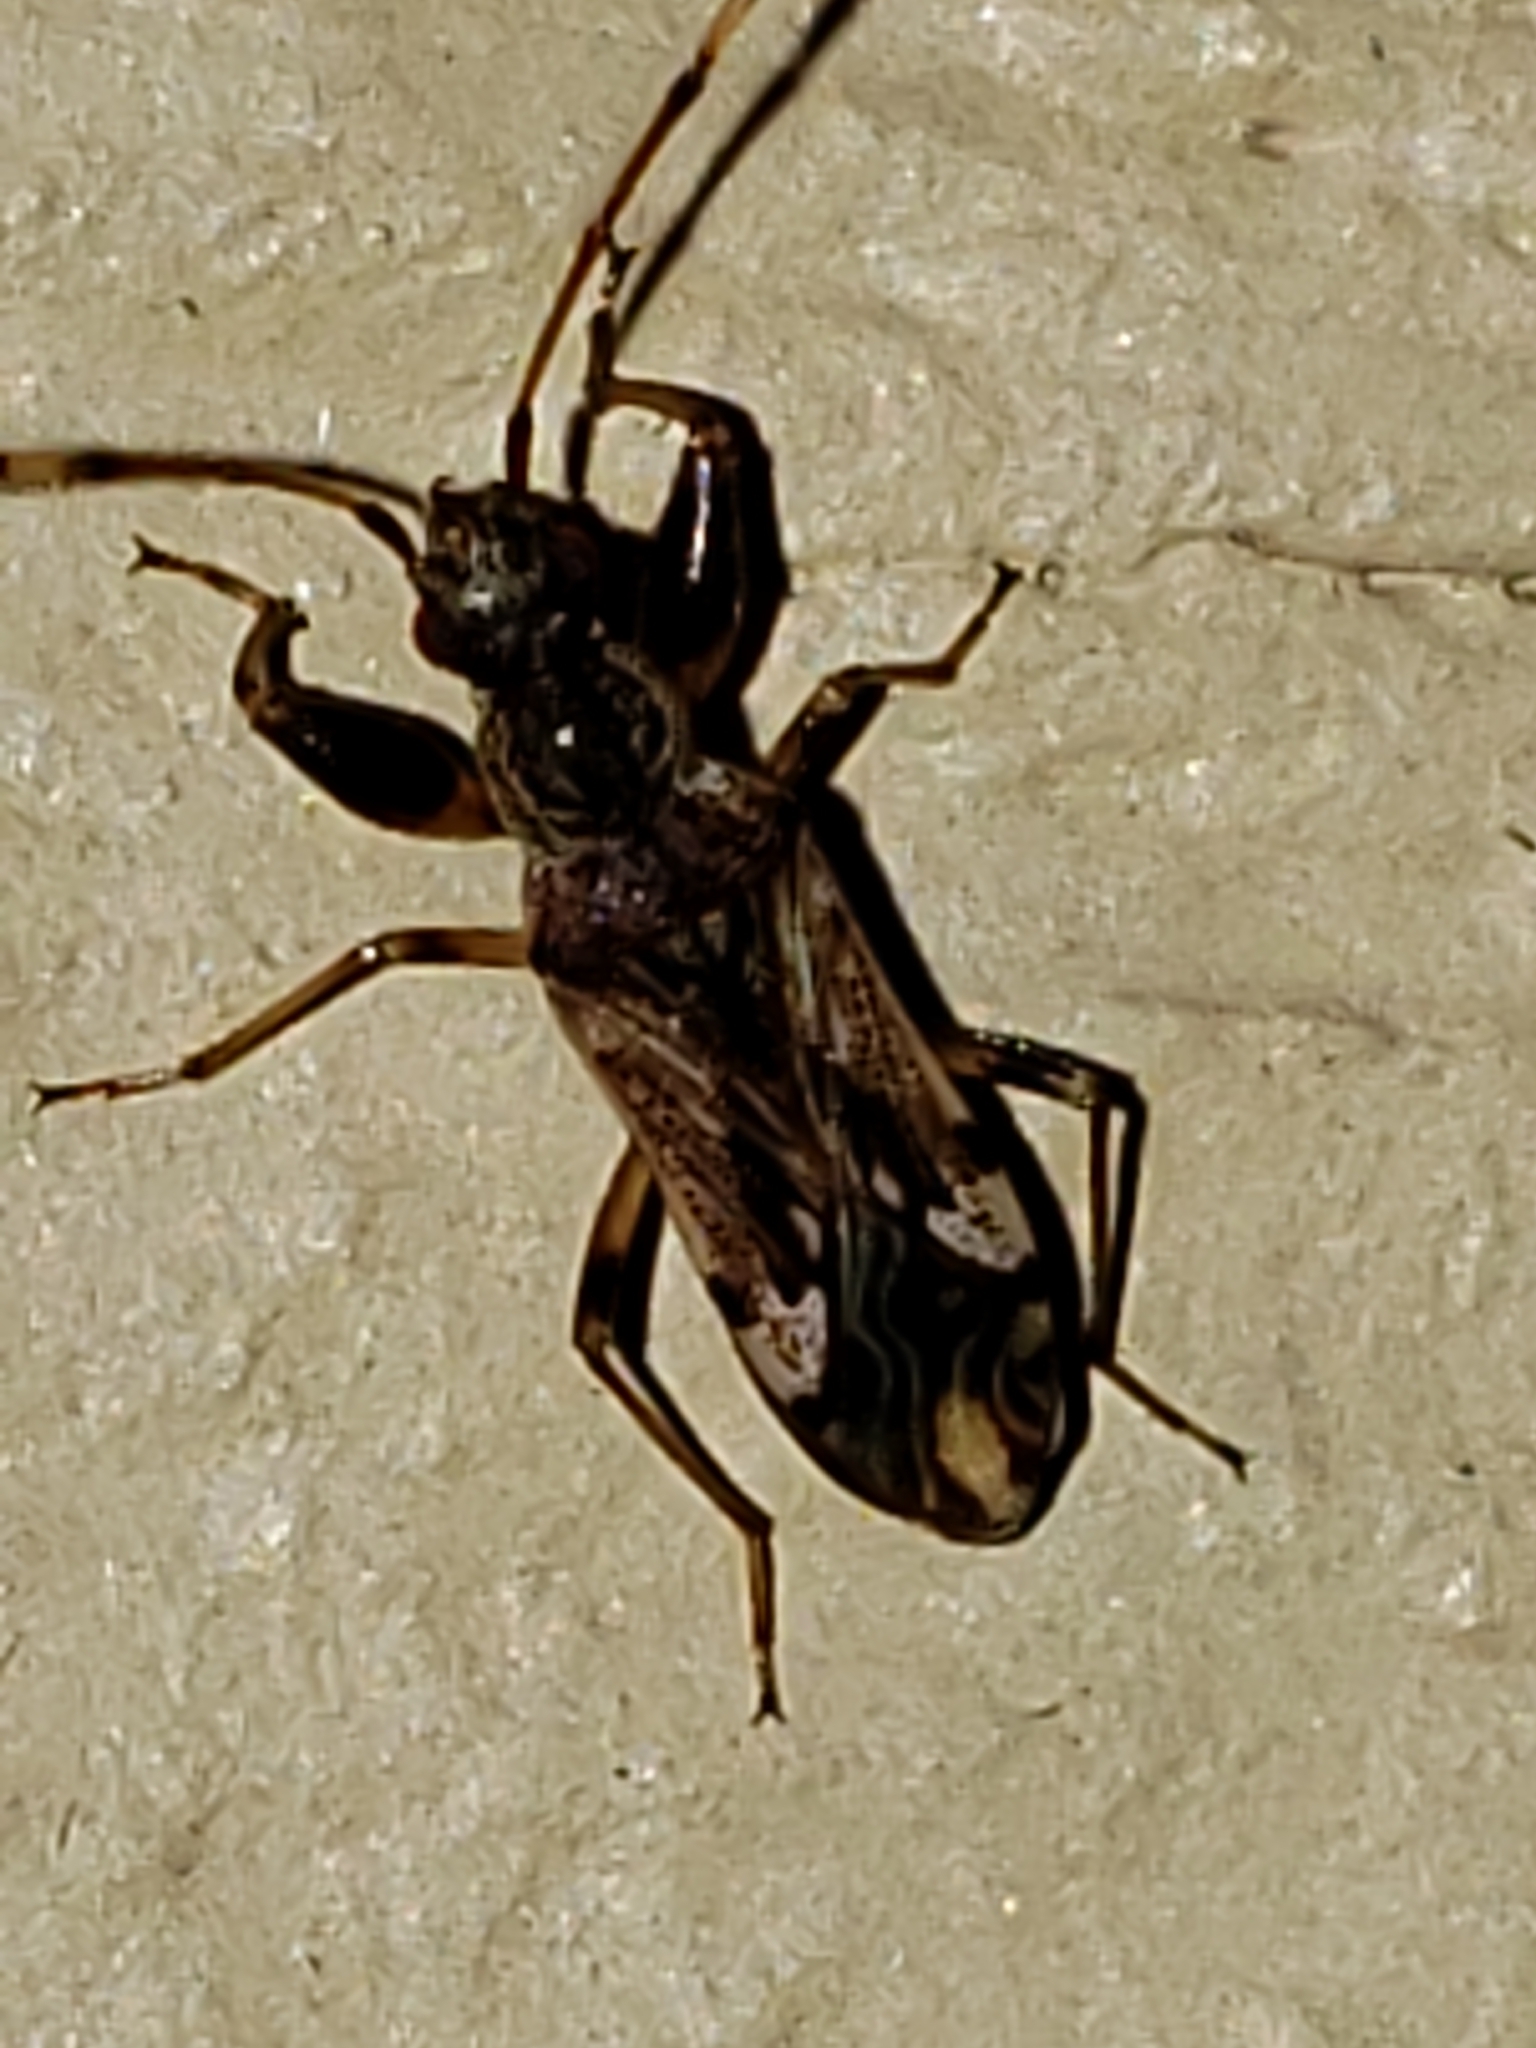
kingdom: Animalia
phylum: Arthropoda
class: Insecta
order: Hemiptera
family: Rhyparochromidae
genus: Neopamera
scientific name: Neopamera albocincta
